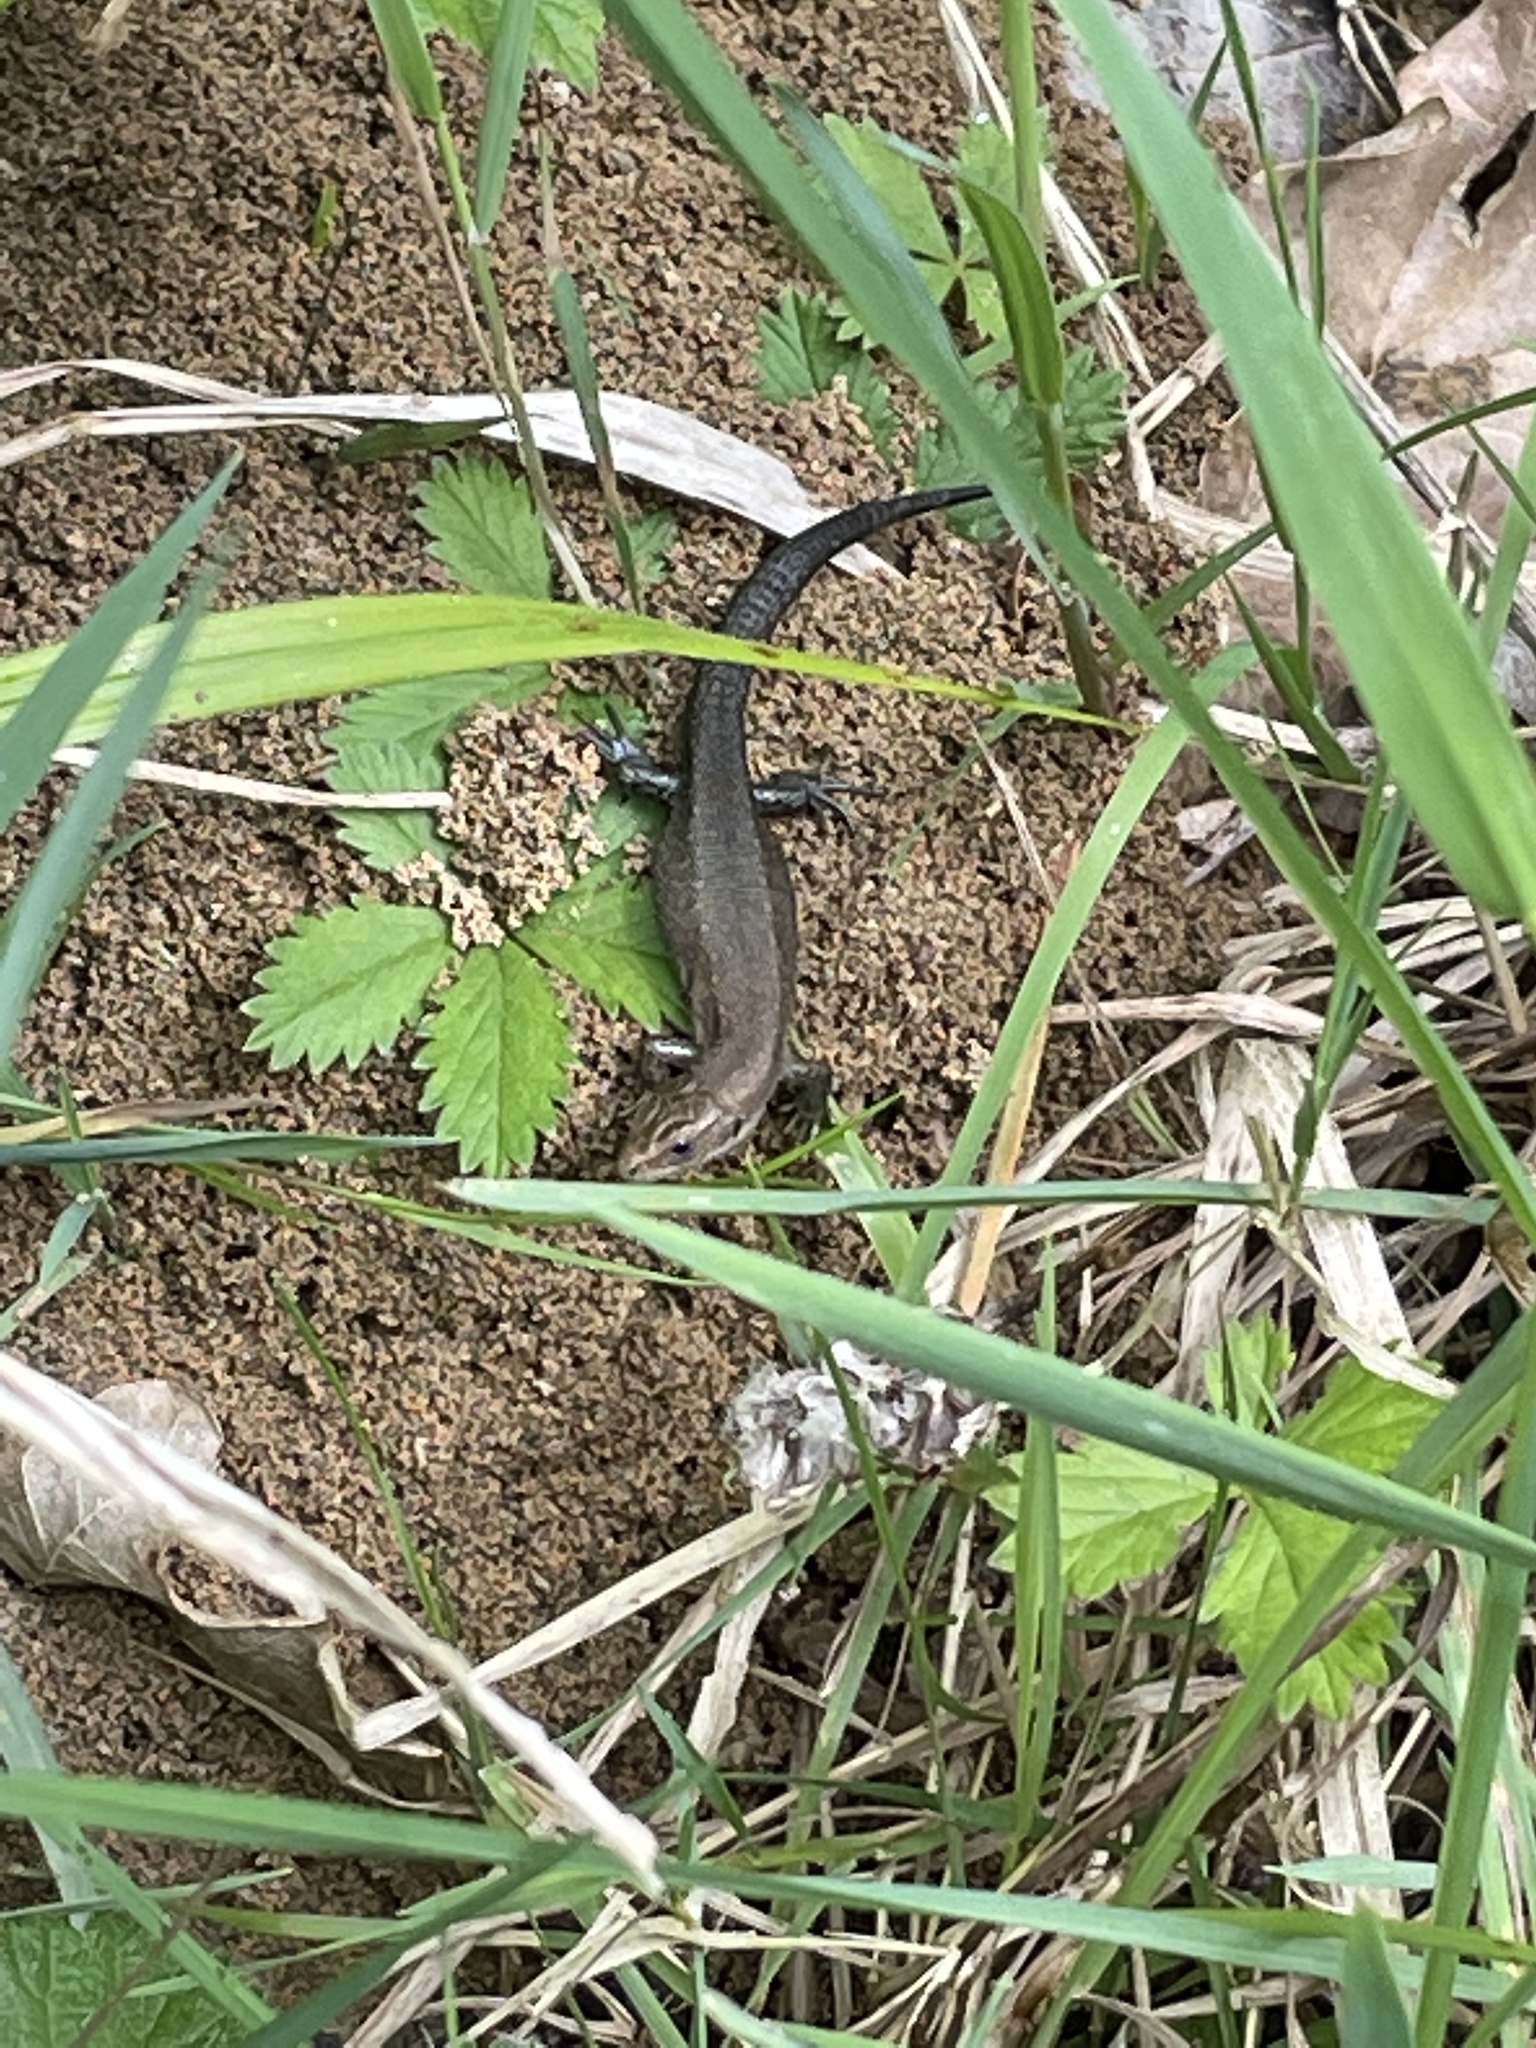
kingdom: Animalia
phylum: Chordata
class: Squamata
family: Lacertidae
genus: Zootoca
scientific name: Zootoca vivipara
